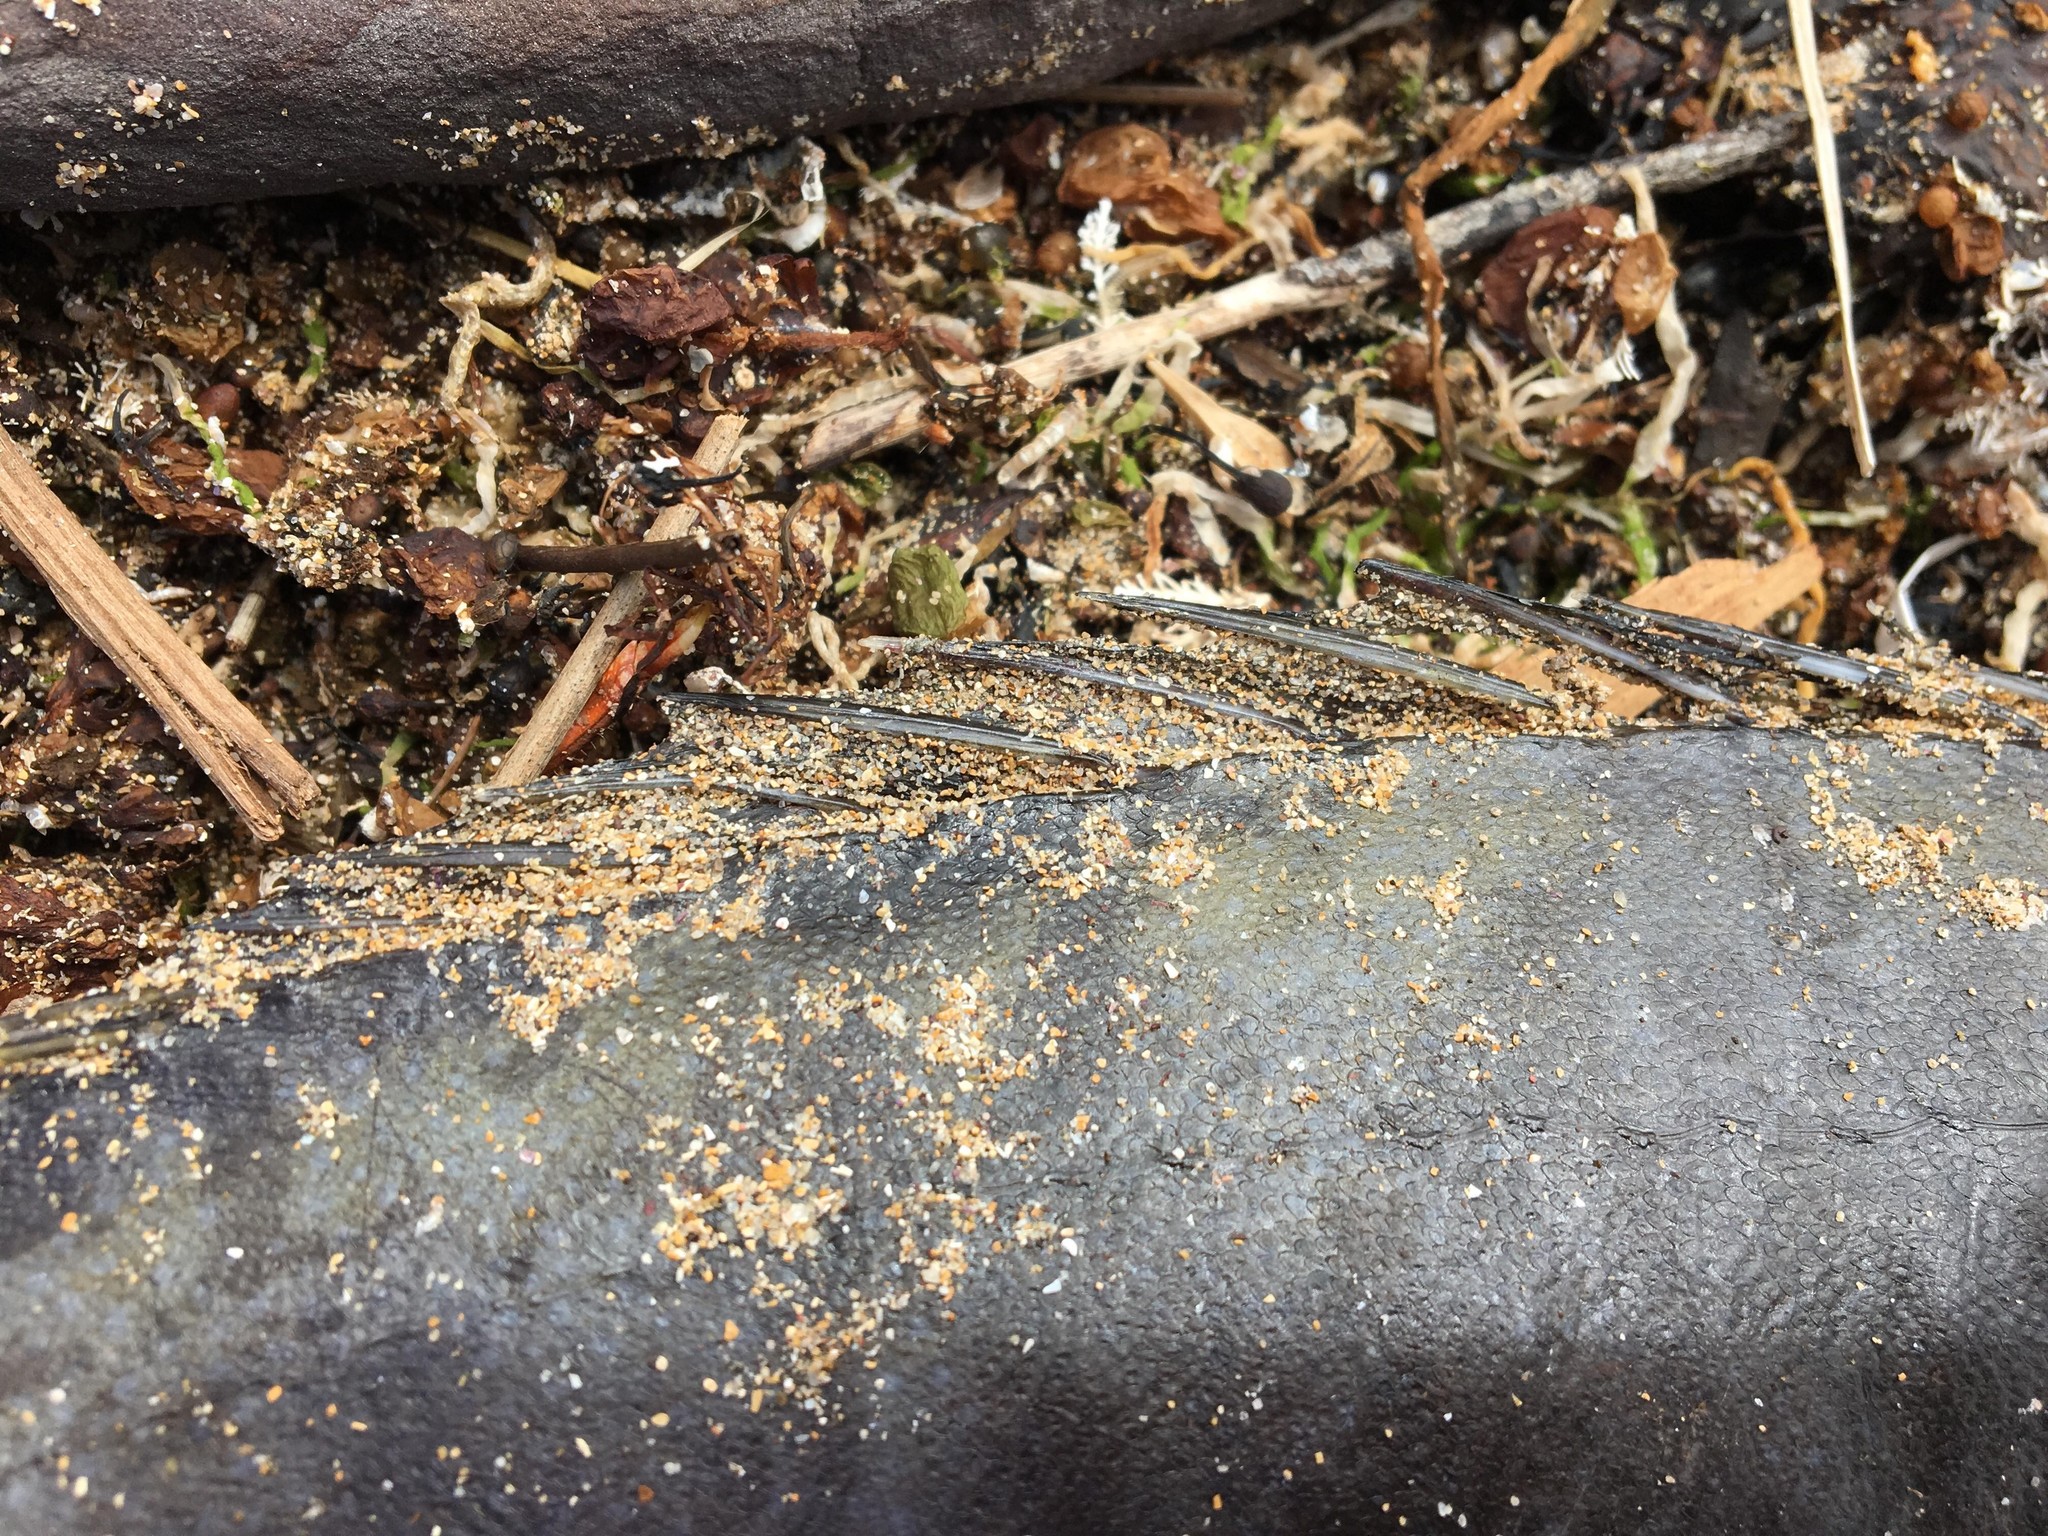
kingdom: Animalia
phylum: Chordata
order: Perciformes
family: Siganidae
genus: Siganus
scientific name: Siganus fuscescens
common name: Dusky rabbitfish
